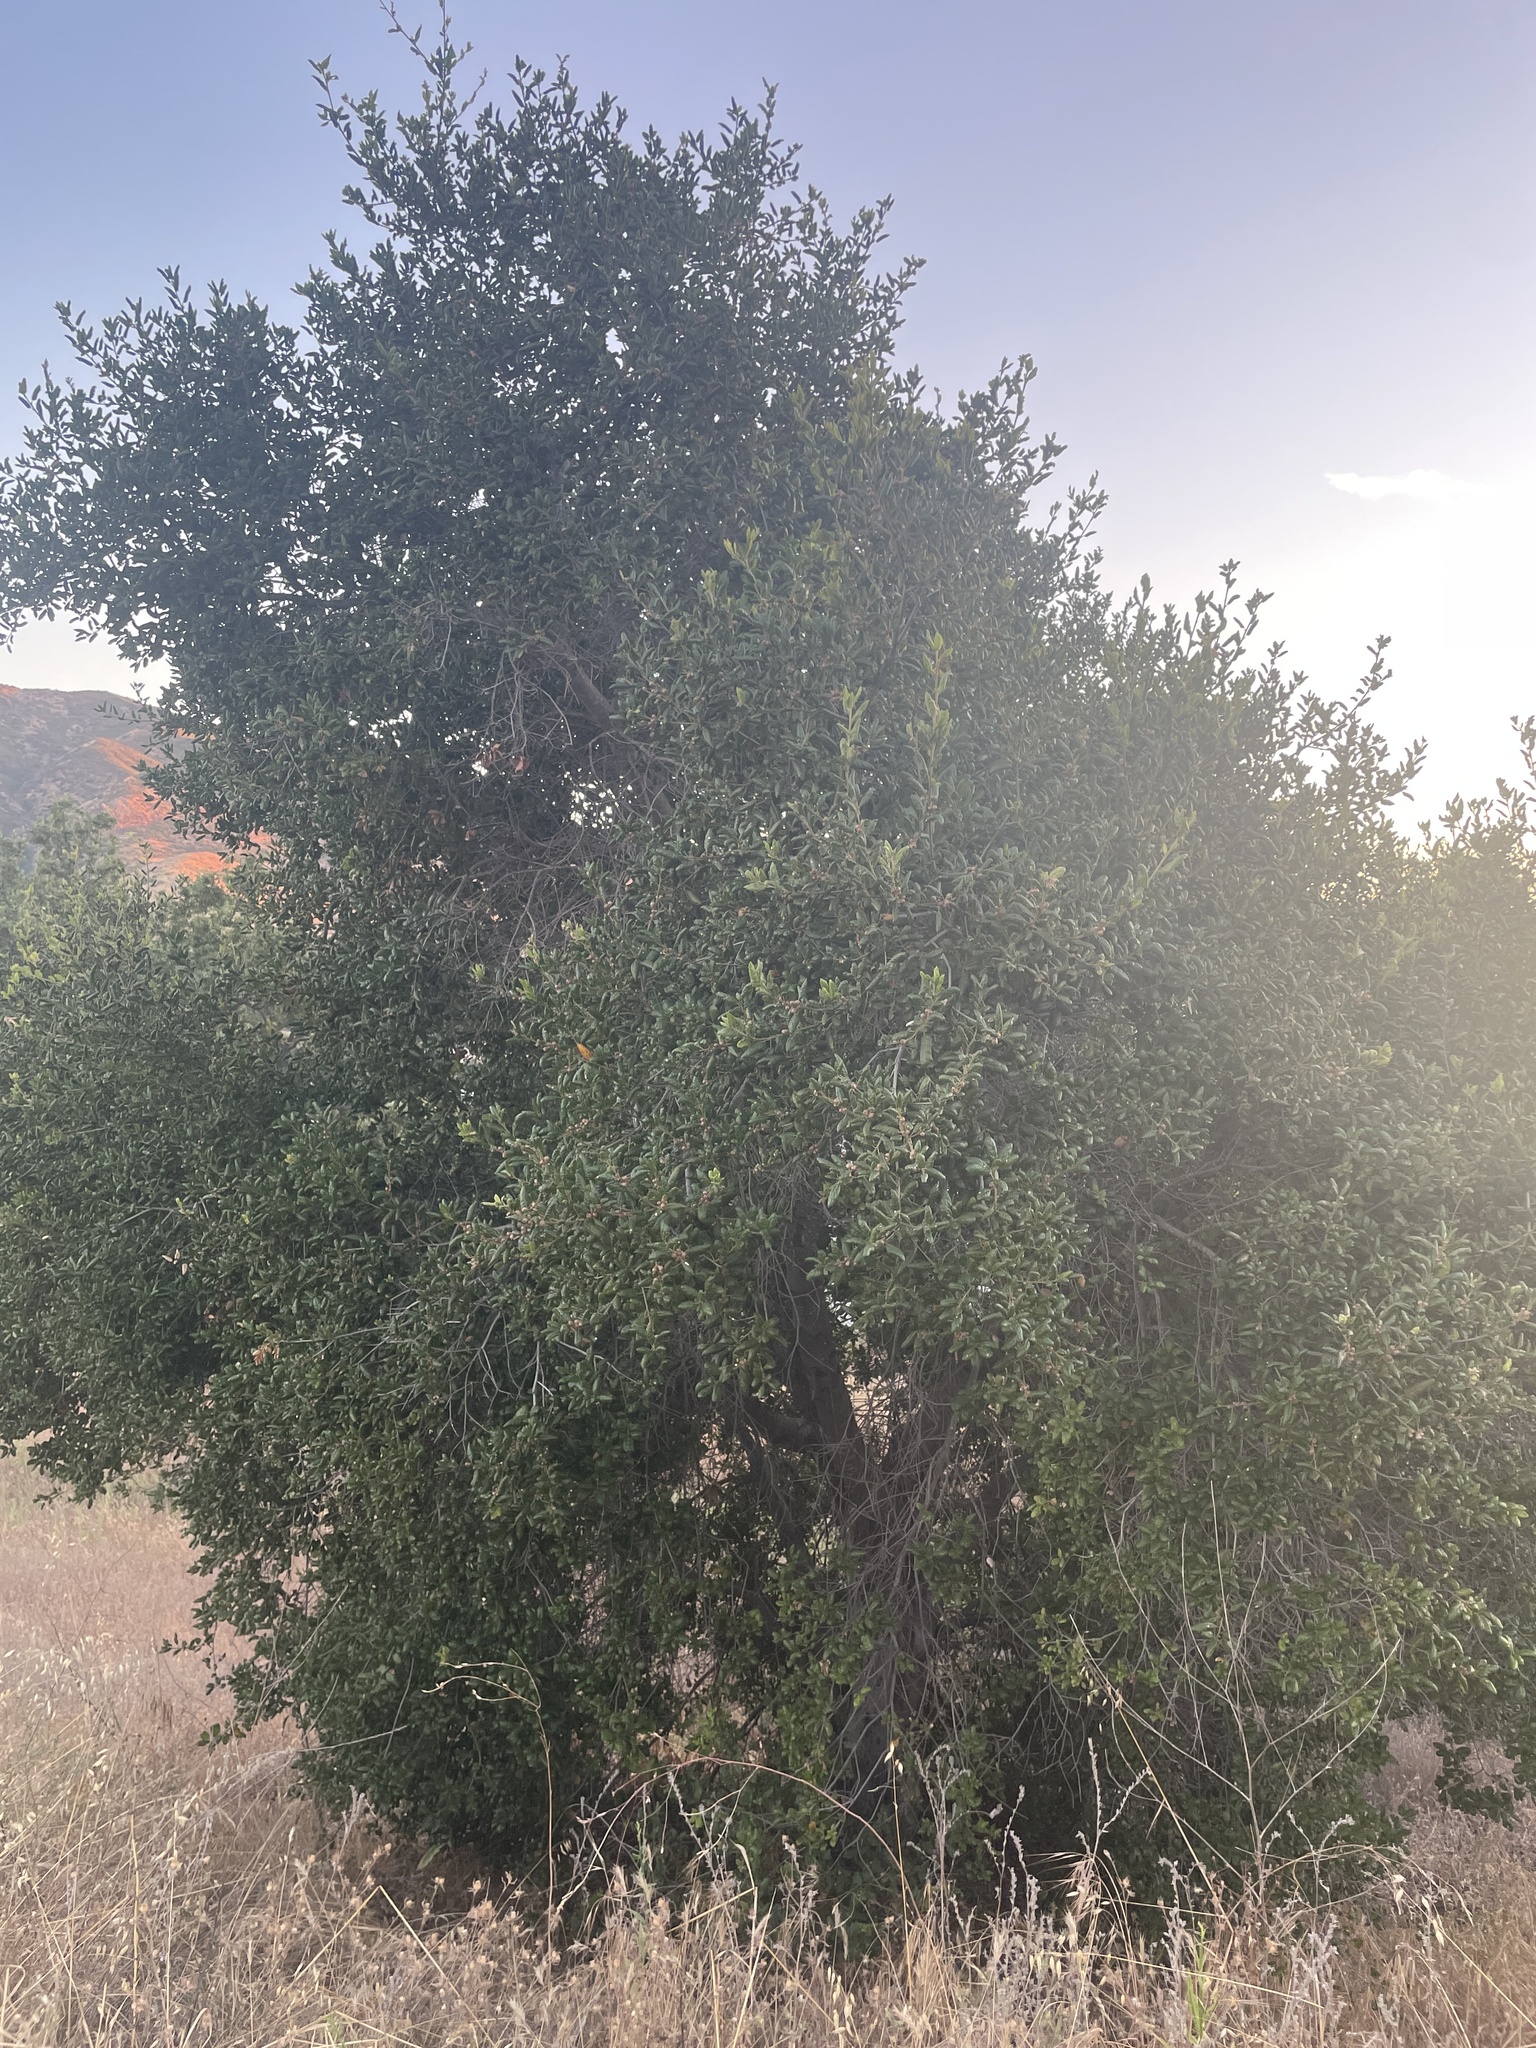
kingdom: Plantae
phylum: Tracheophyta
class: Magnoliopsida
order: Fagales
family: Fagaceae
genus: Quercus
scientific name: Quercus agrifolia
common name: California live oak
